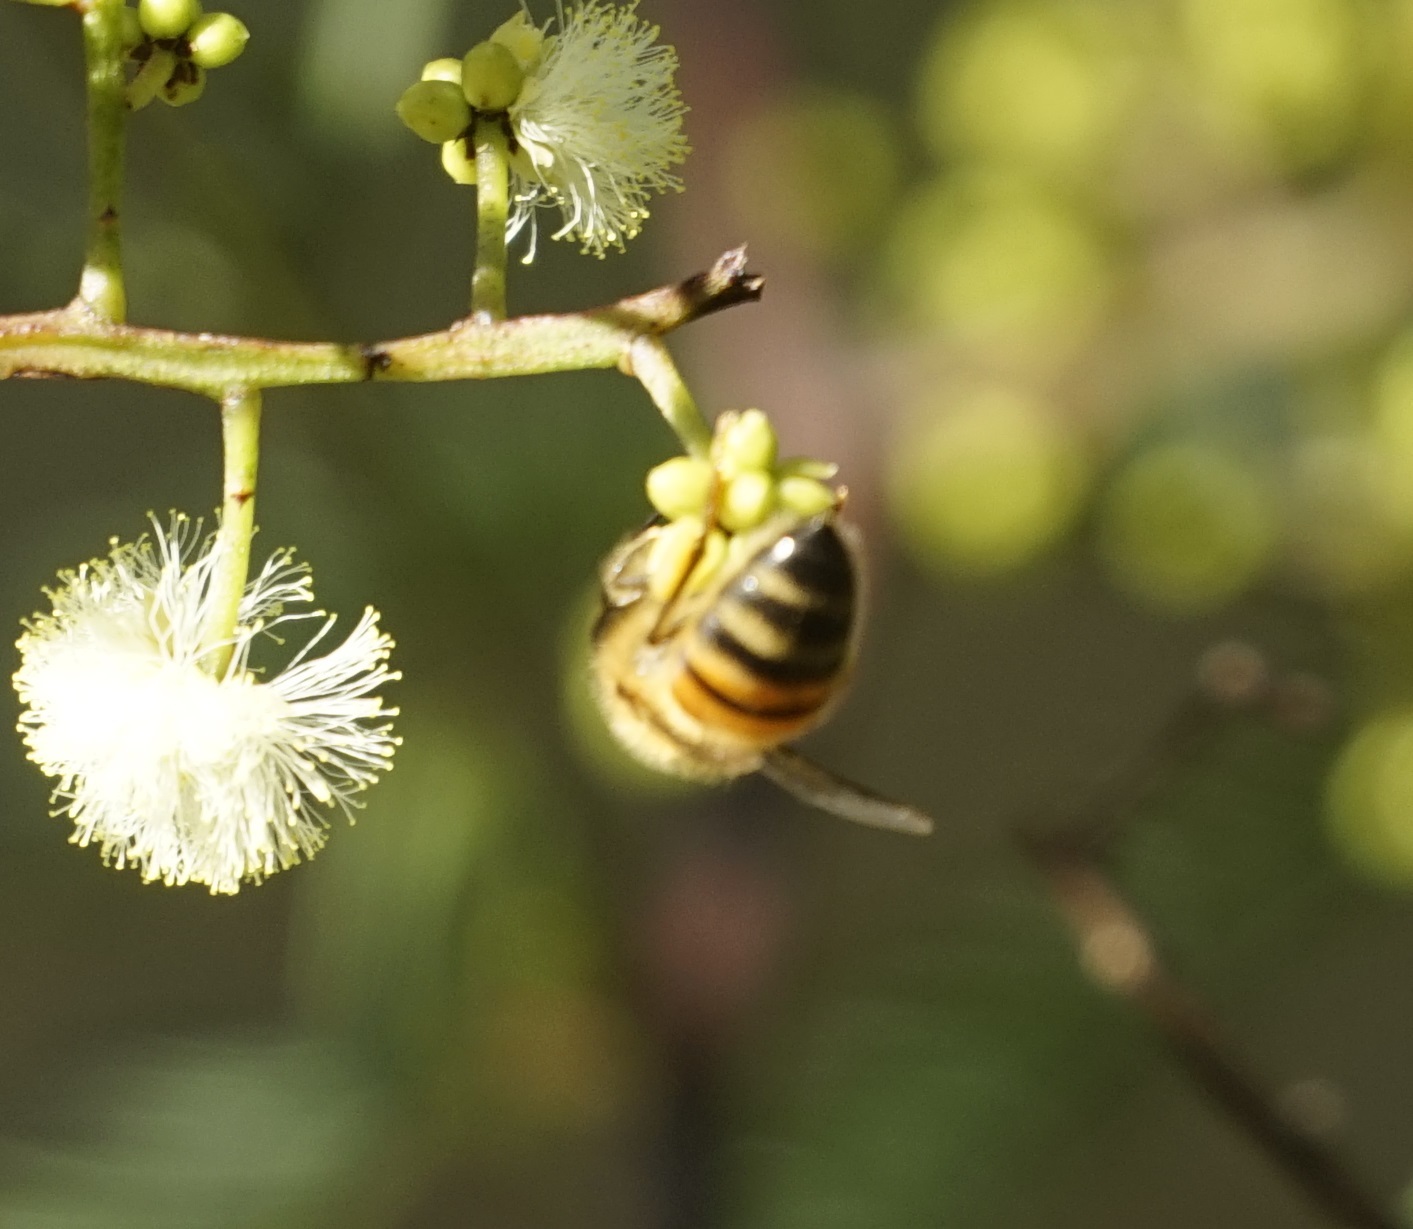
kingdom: Animalia
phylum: Arthropoda
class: Insecta
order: Hymenoptera
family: Apidae
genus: Apis
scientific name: Apis mellifera
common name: Honey bee
